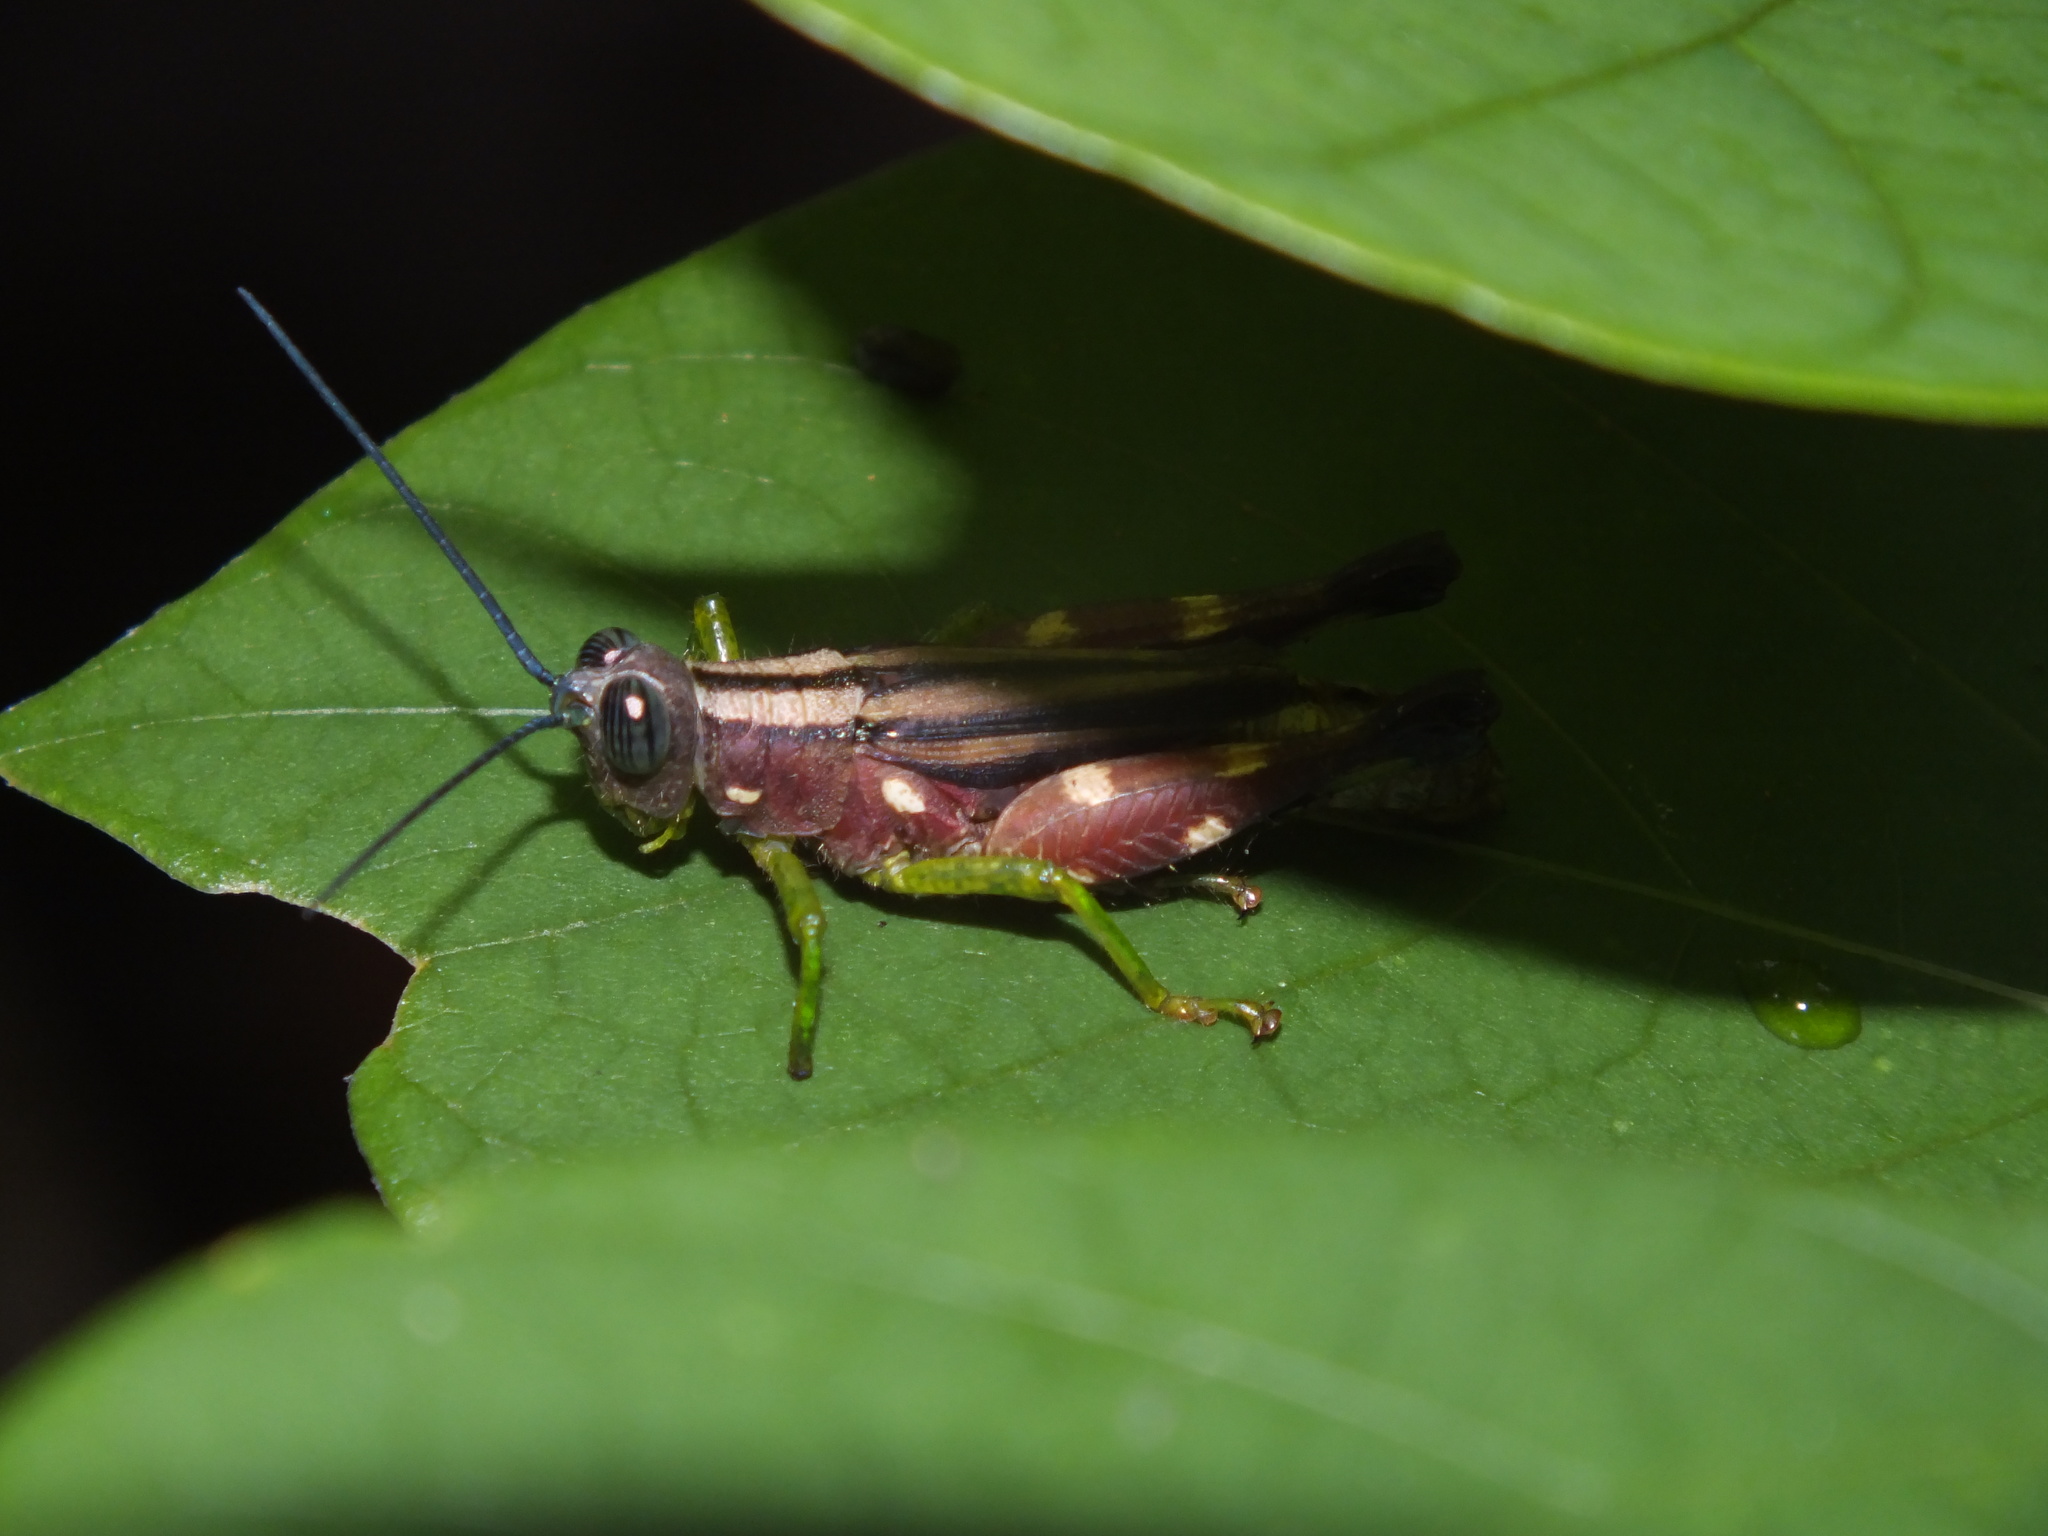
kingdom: Animalia
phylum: Arthropoda
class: Insecta
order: Orthoptera
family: Acrididae
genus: Syntomacris
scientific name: Syntomacris guttulosa
